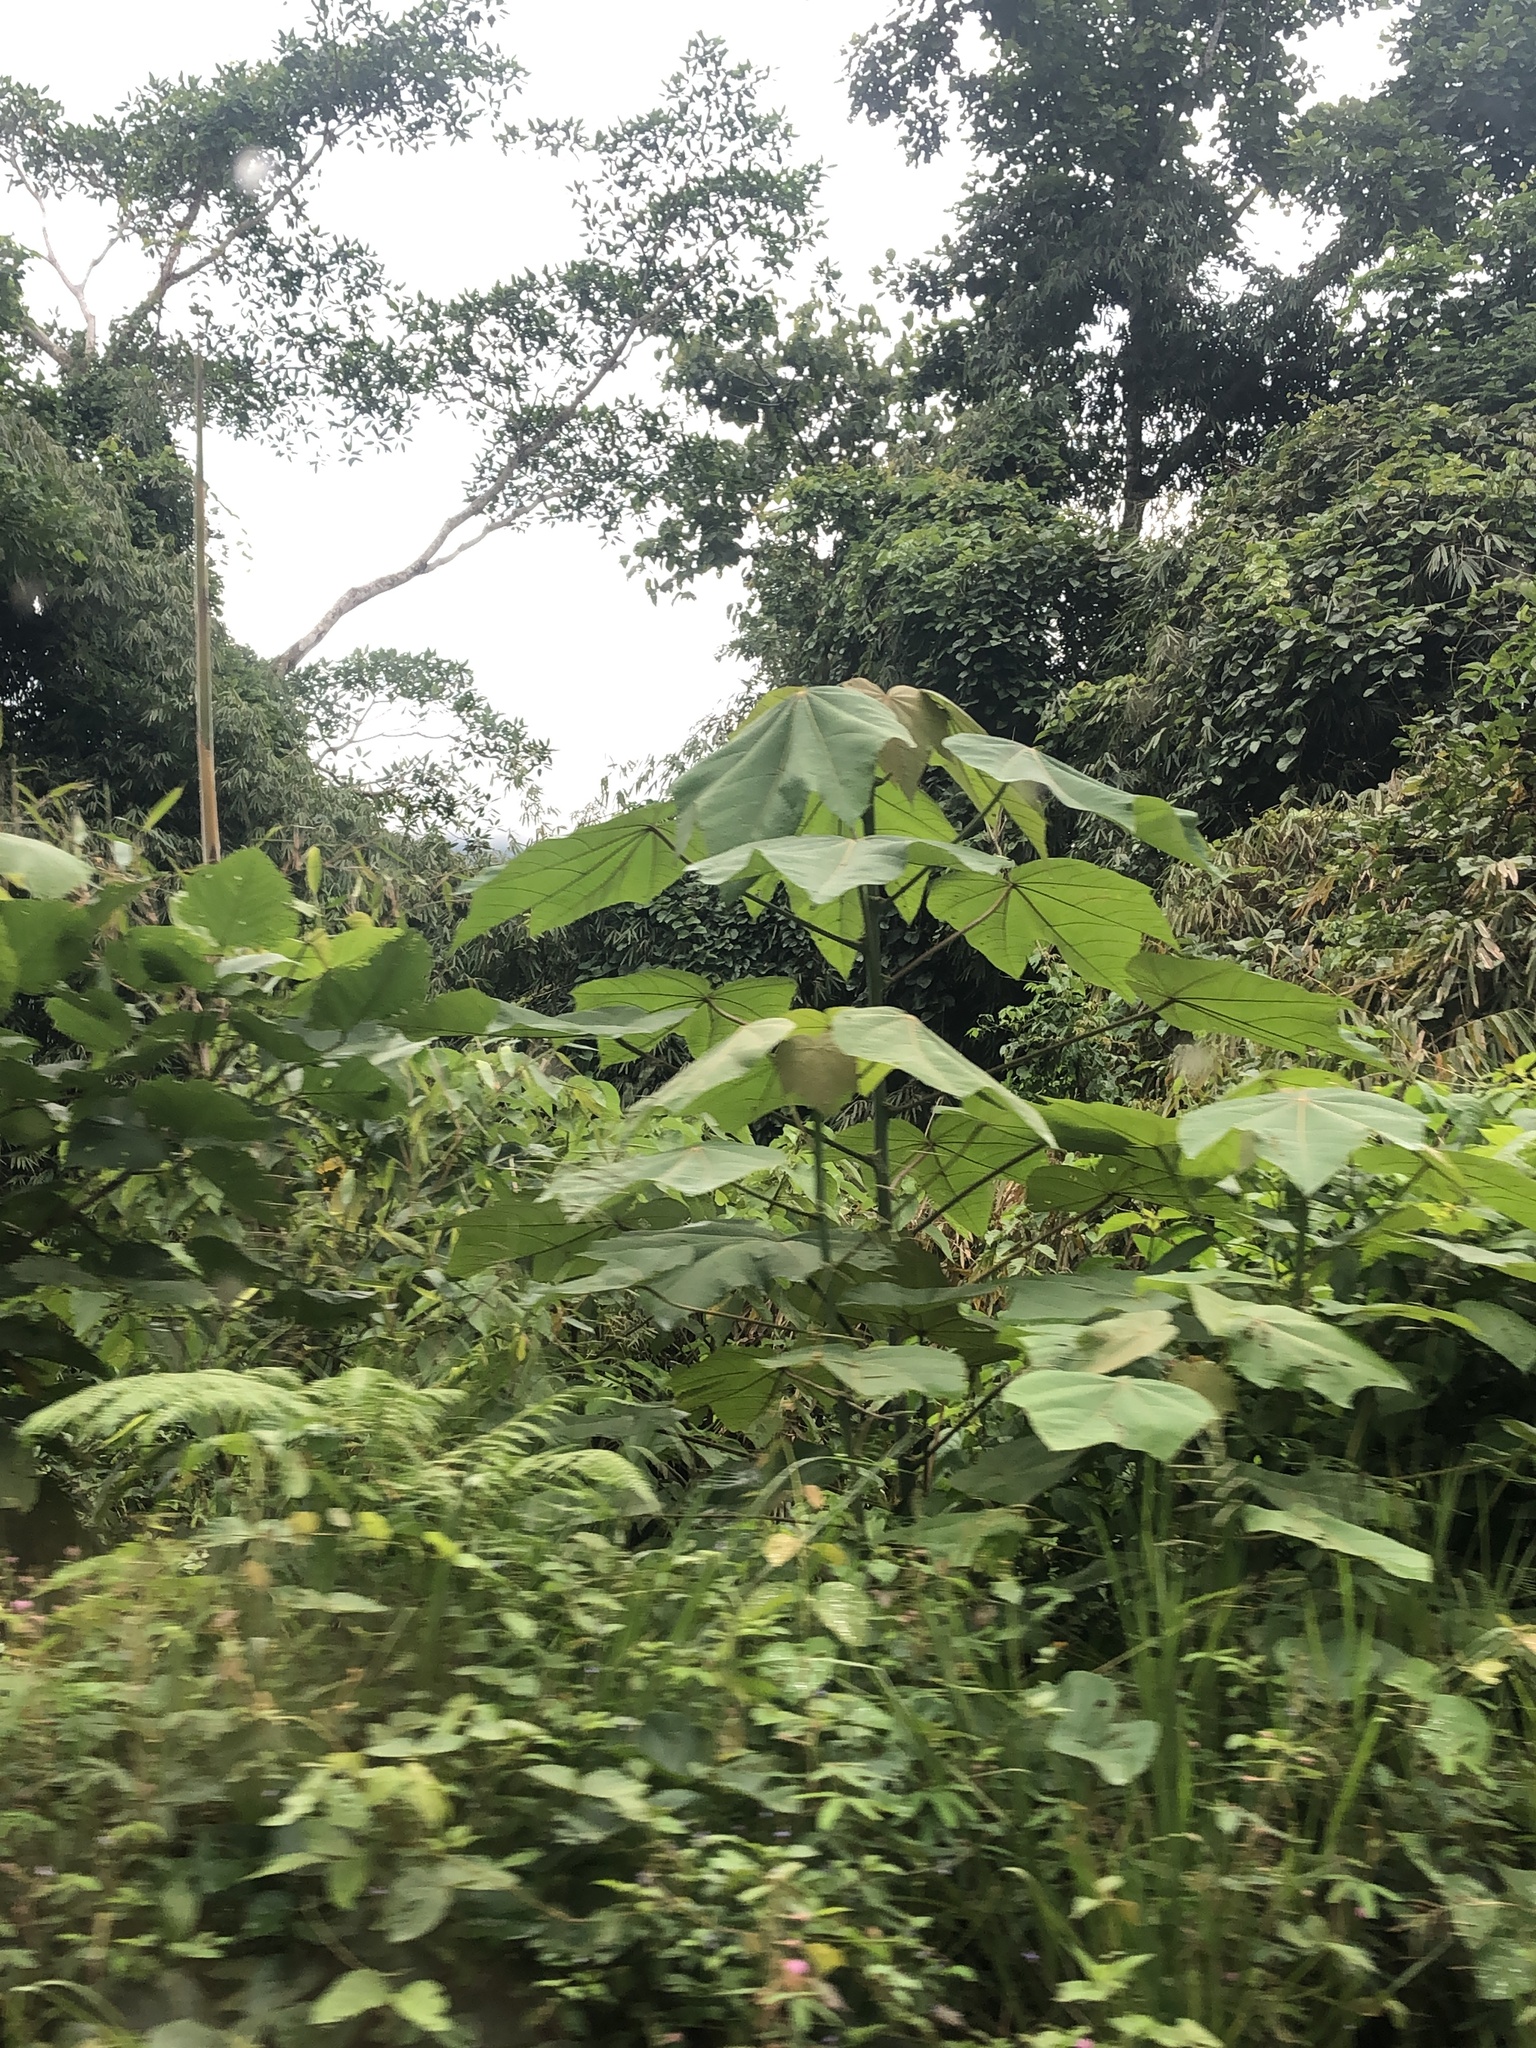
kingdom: Plantae
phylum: Tracheophyta
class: Magnoliopsida
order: Malvales
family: Malvaceae
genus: Ochroma
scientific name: Ochroma pyramidale
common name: Balsa
